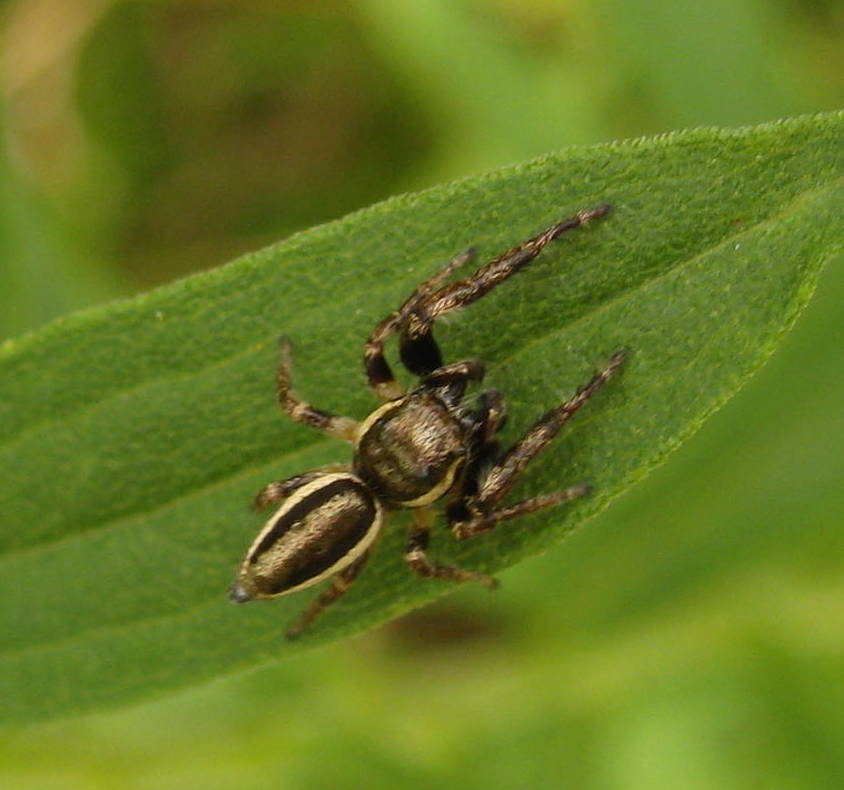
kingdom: Animalia
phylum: Arthropoda
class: Arachnida
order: Araneae
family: Salticidae
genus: Eris
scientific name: Eris militaris
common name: Bronze jumper
